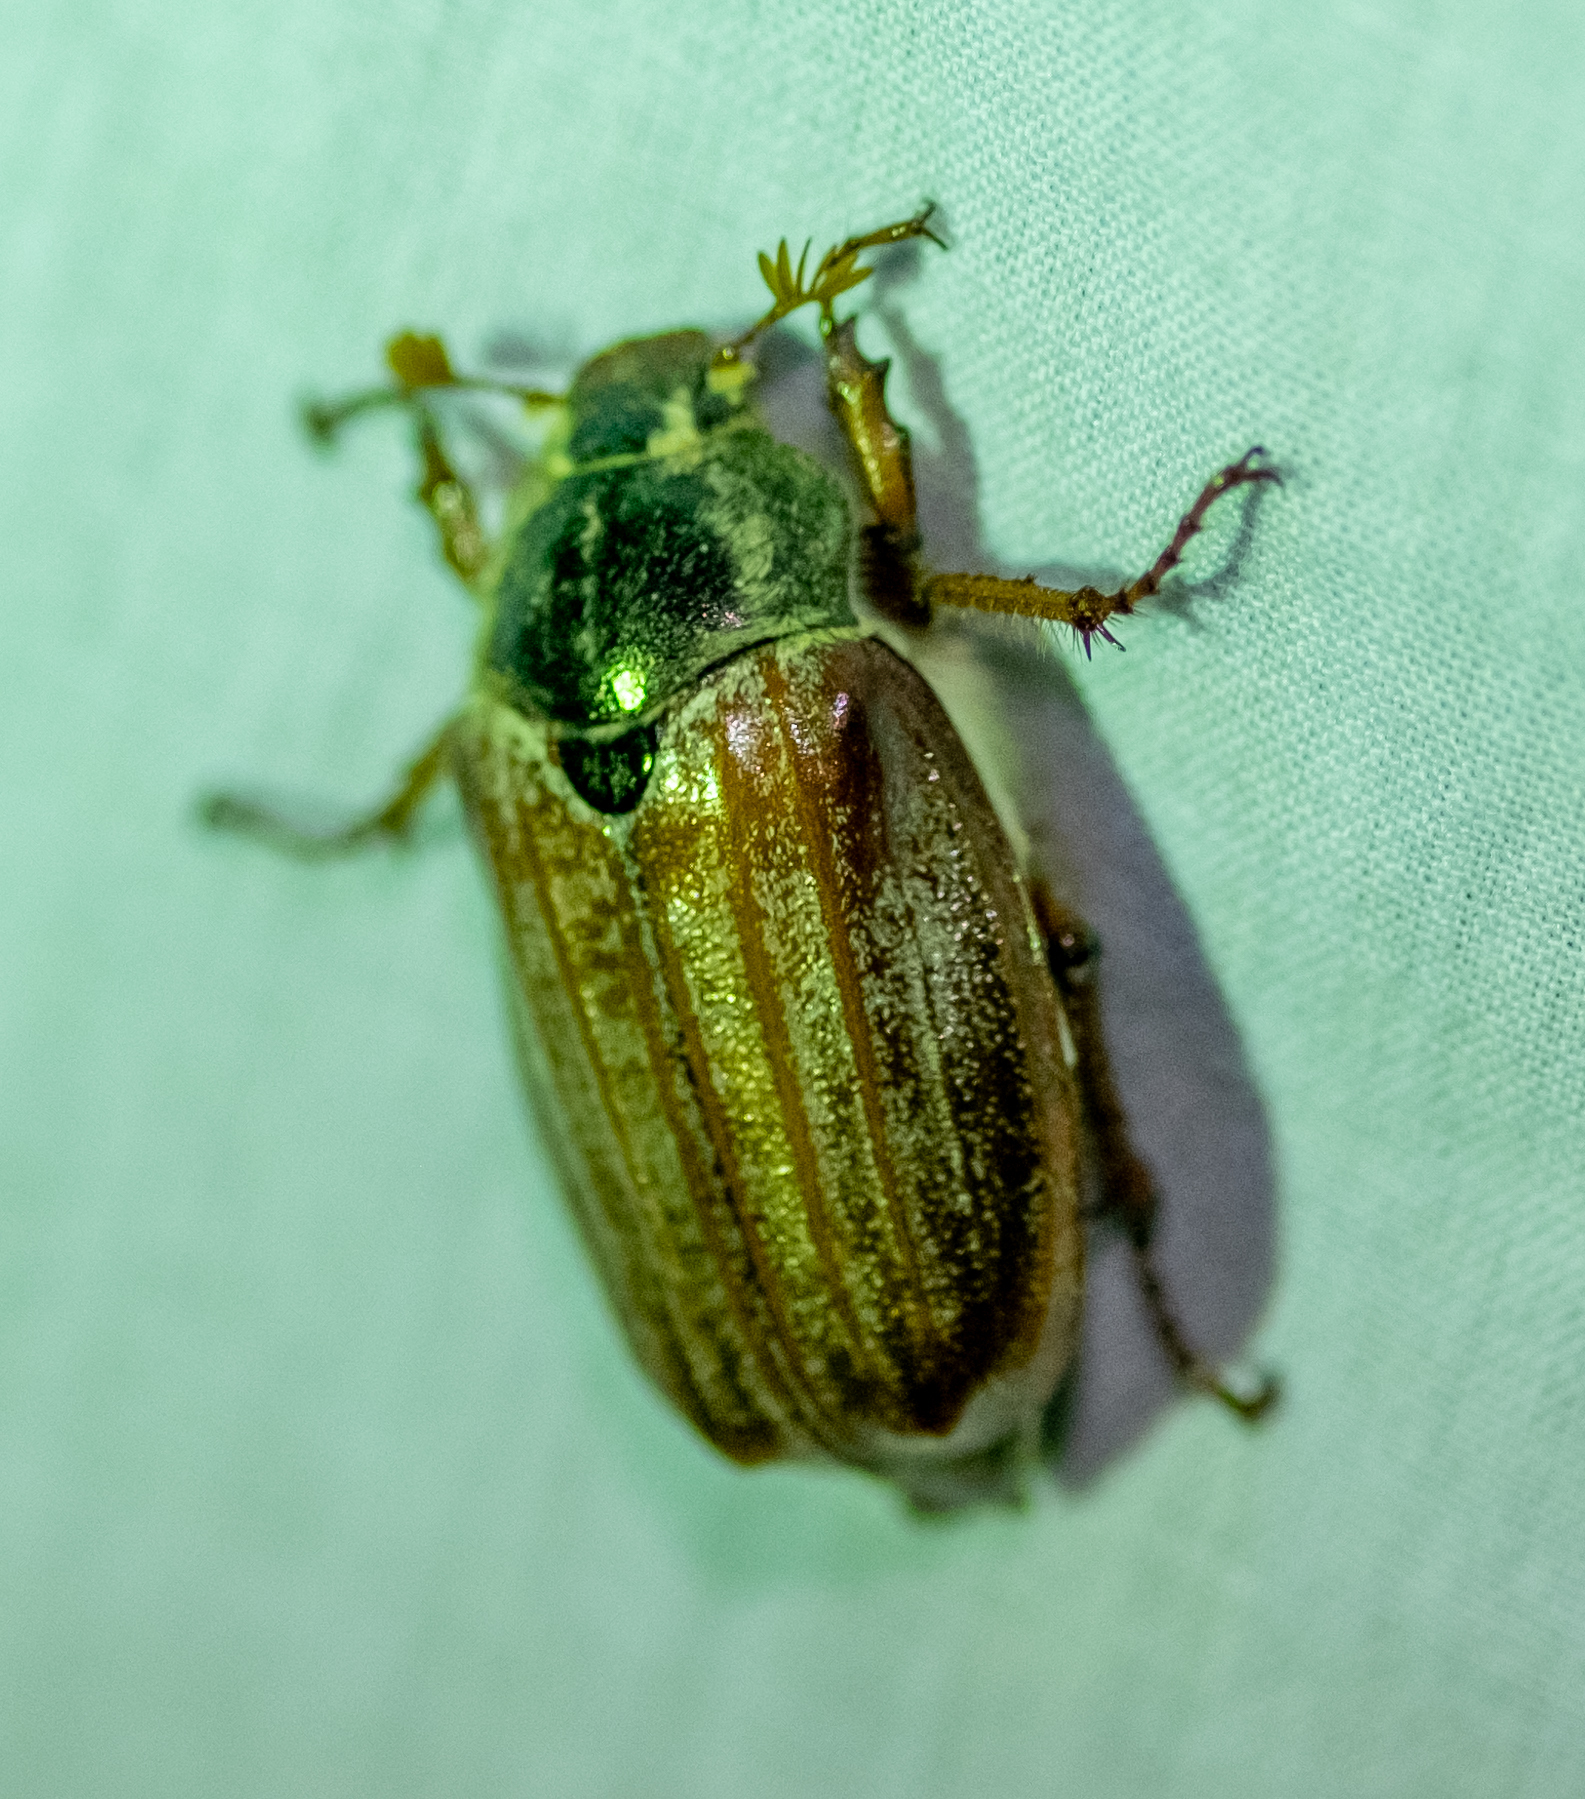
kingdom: Animalia
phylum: Arthropoda
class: Insecta
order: Coleoptera
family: Scarabaeidae
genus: Melolontha
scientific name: Melolontha melolontha
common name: Cockchafer maybeetle
